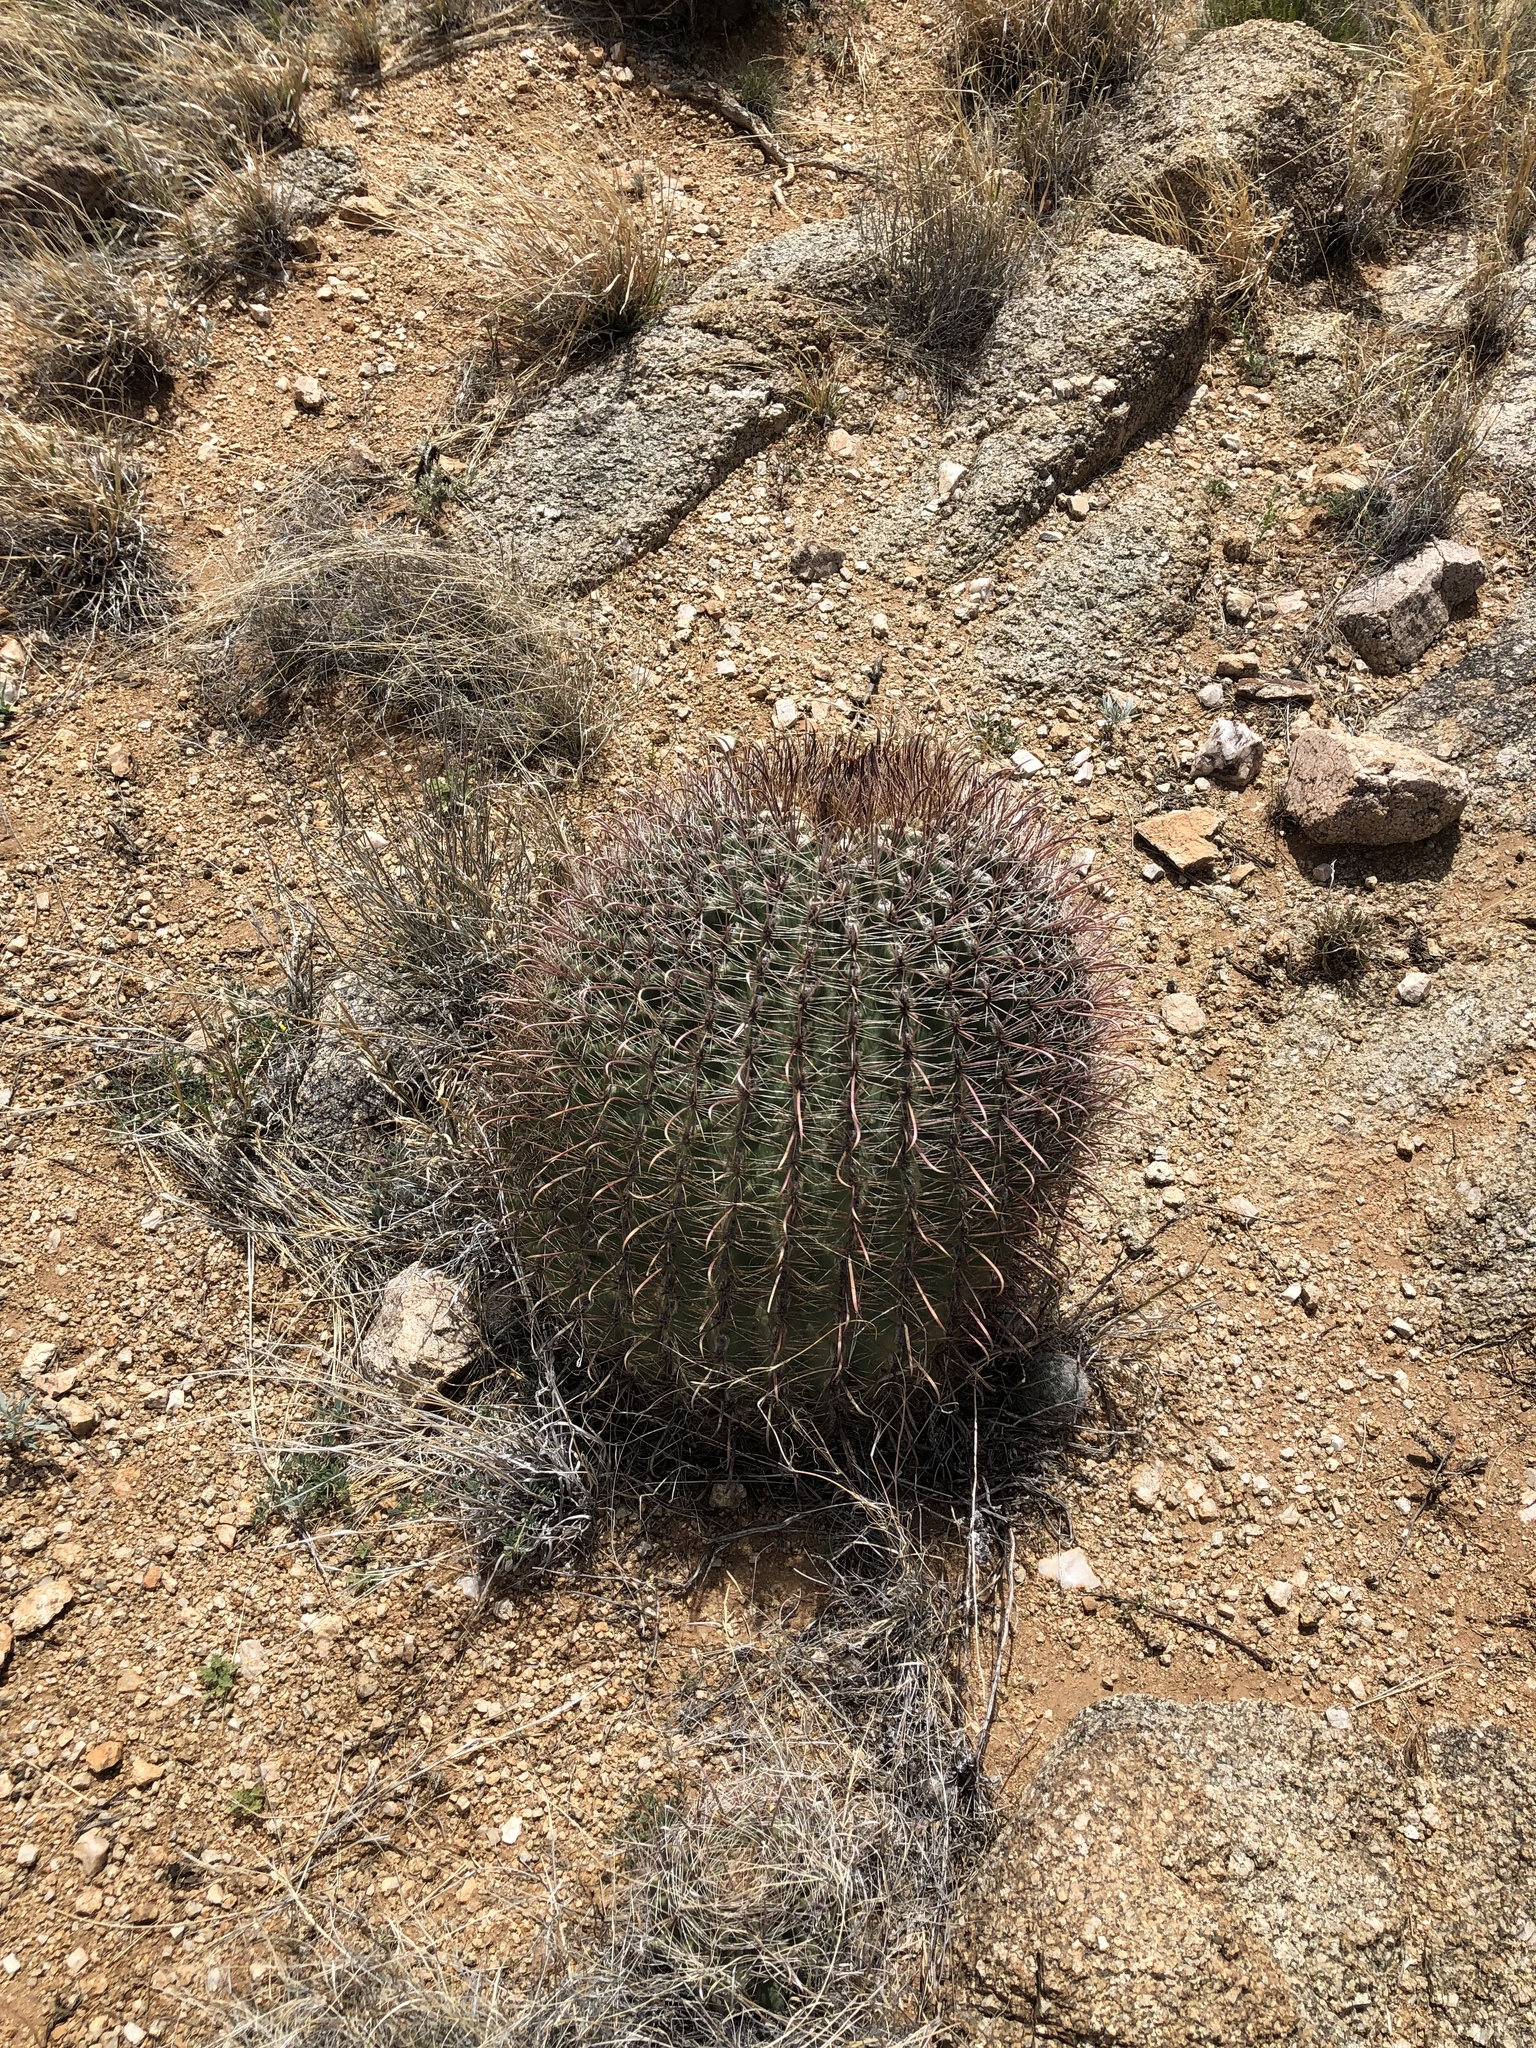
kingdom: Plantae
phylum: Tracheophyta
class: Magnoliopsida
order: Caryophyllales
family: Cactaceae
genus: Ferocactus
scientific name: Ferocactus wislizeni
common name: Candy barrel cactus
